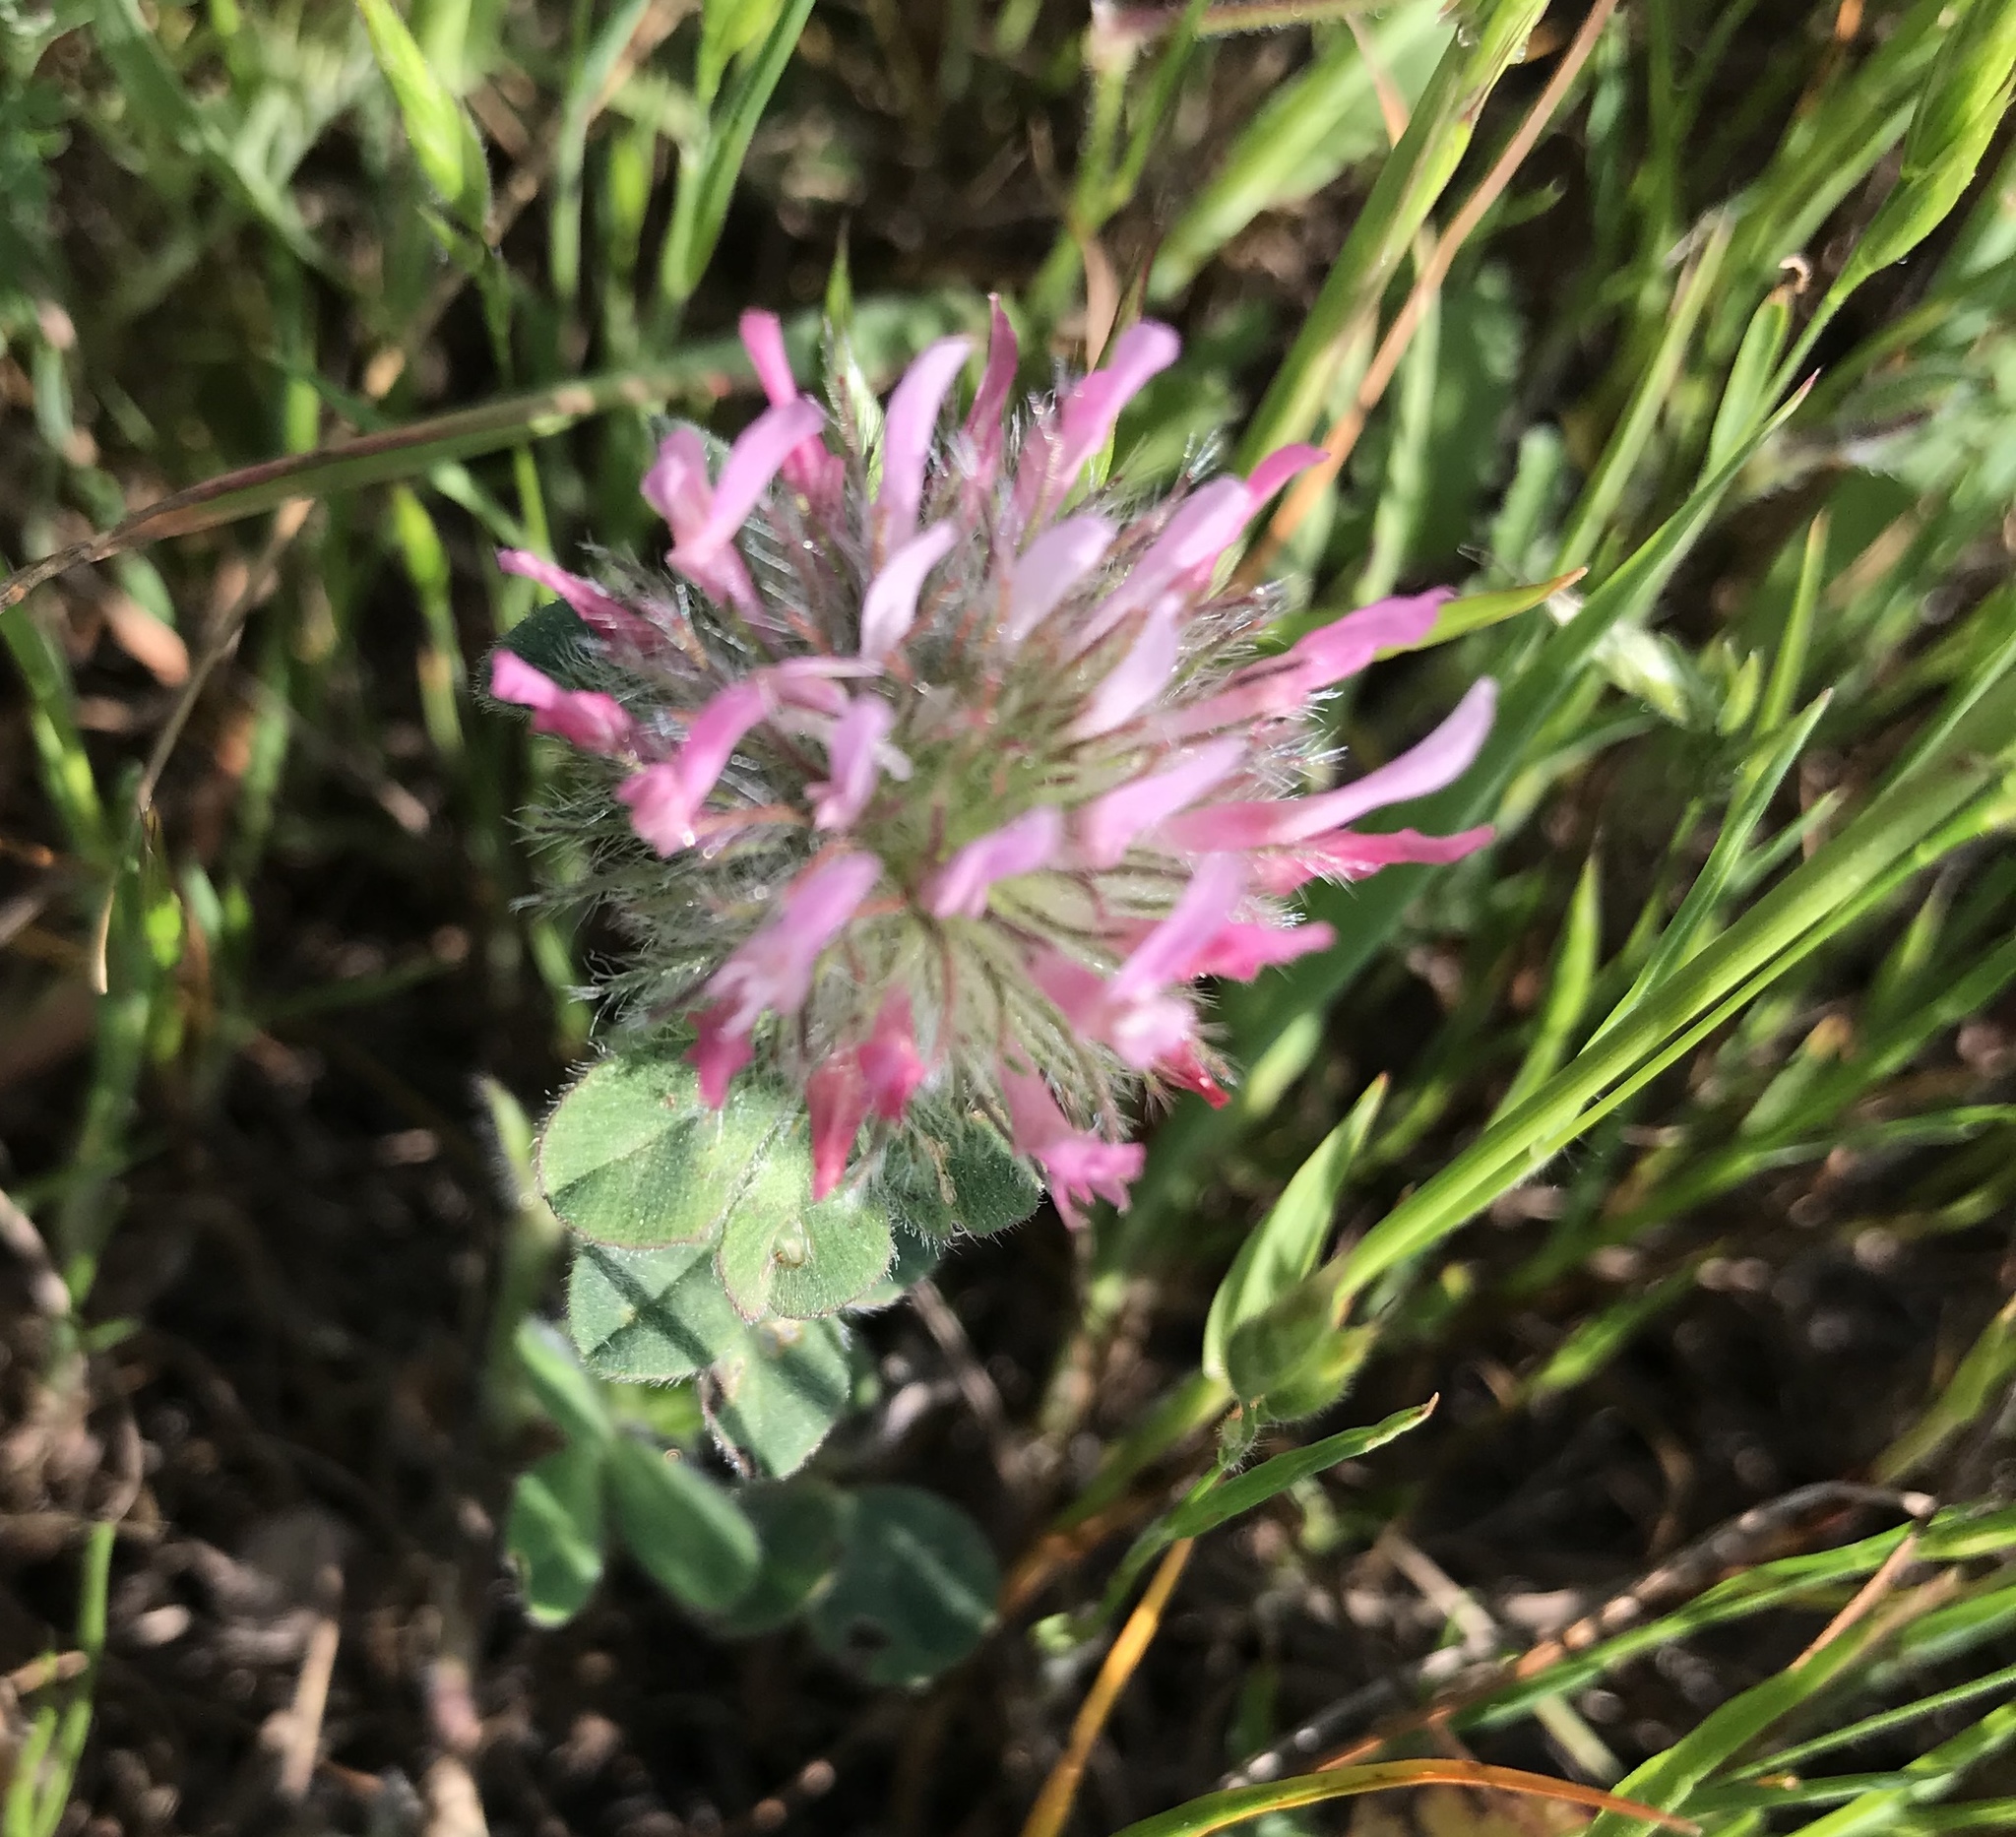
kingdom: Plantae
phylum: Tracheophyta
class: Magnoliopsida
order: Fabales
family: Fabaceae
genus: Trifolium
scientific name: Trifolium hirtum
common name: Rose clover
